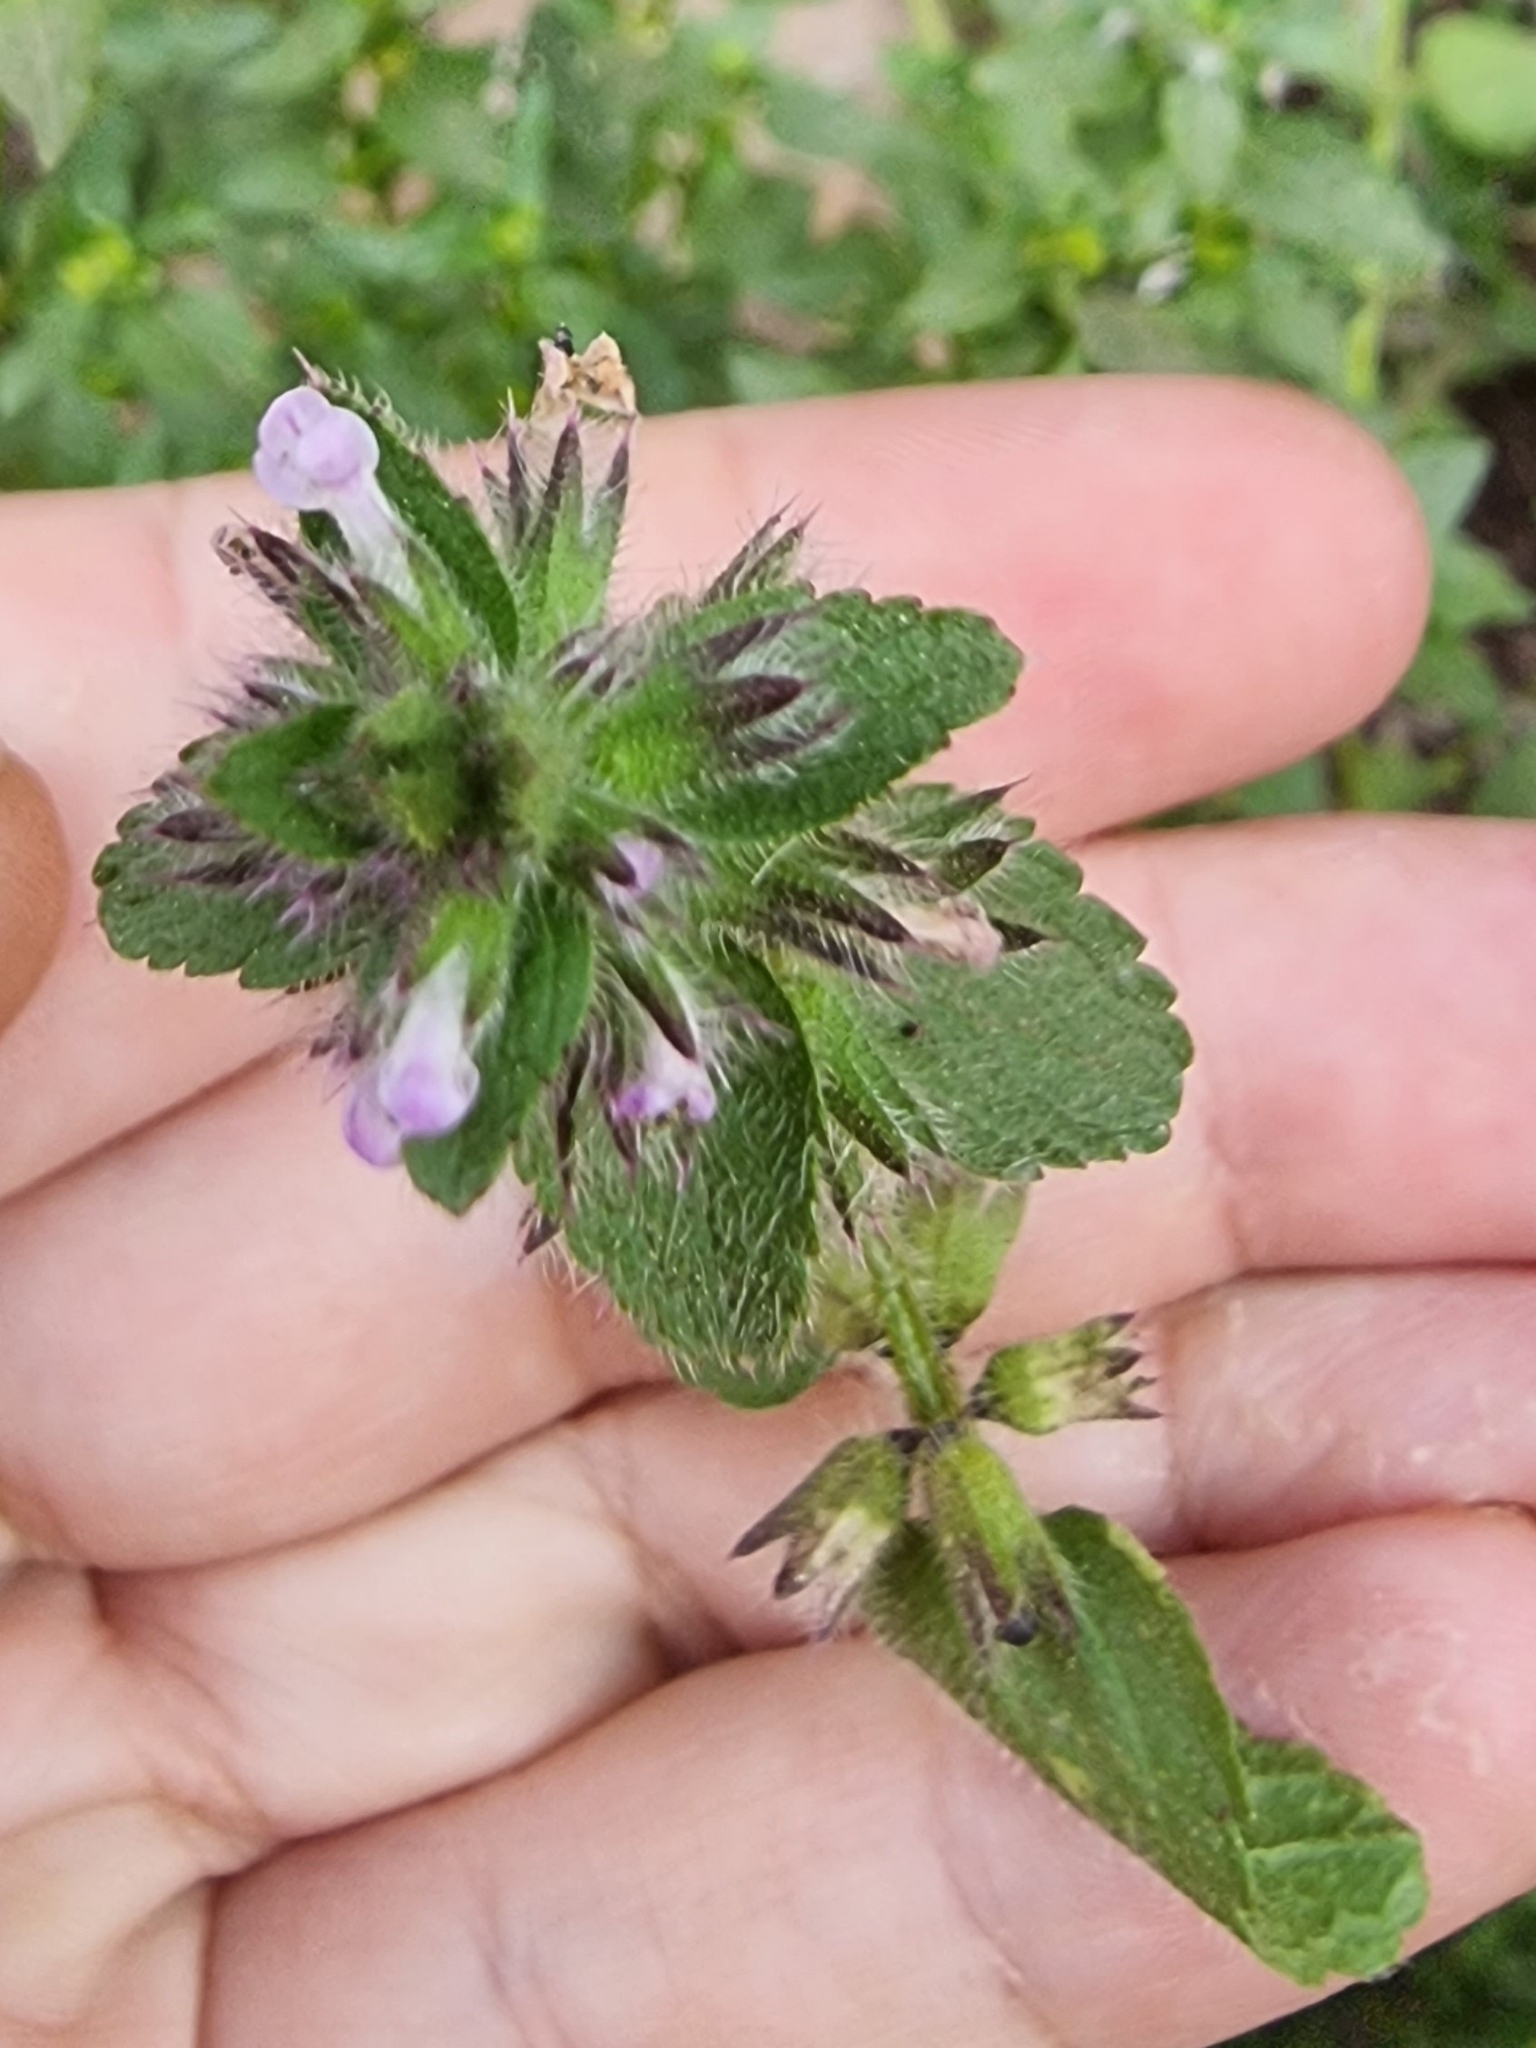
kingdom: Plantae
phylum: Tracheophyta
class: Magnoliopsida
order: Lamiales
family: Lamiaceae
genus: Stachys
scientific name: Stachys arvensis
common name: Field woundwort
